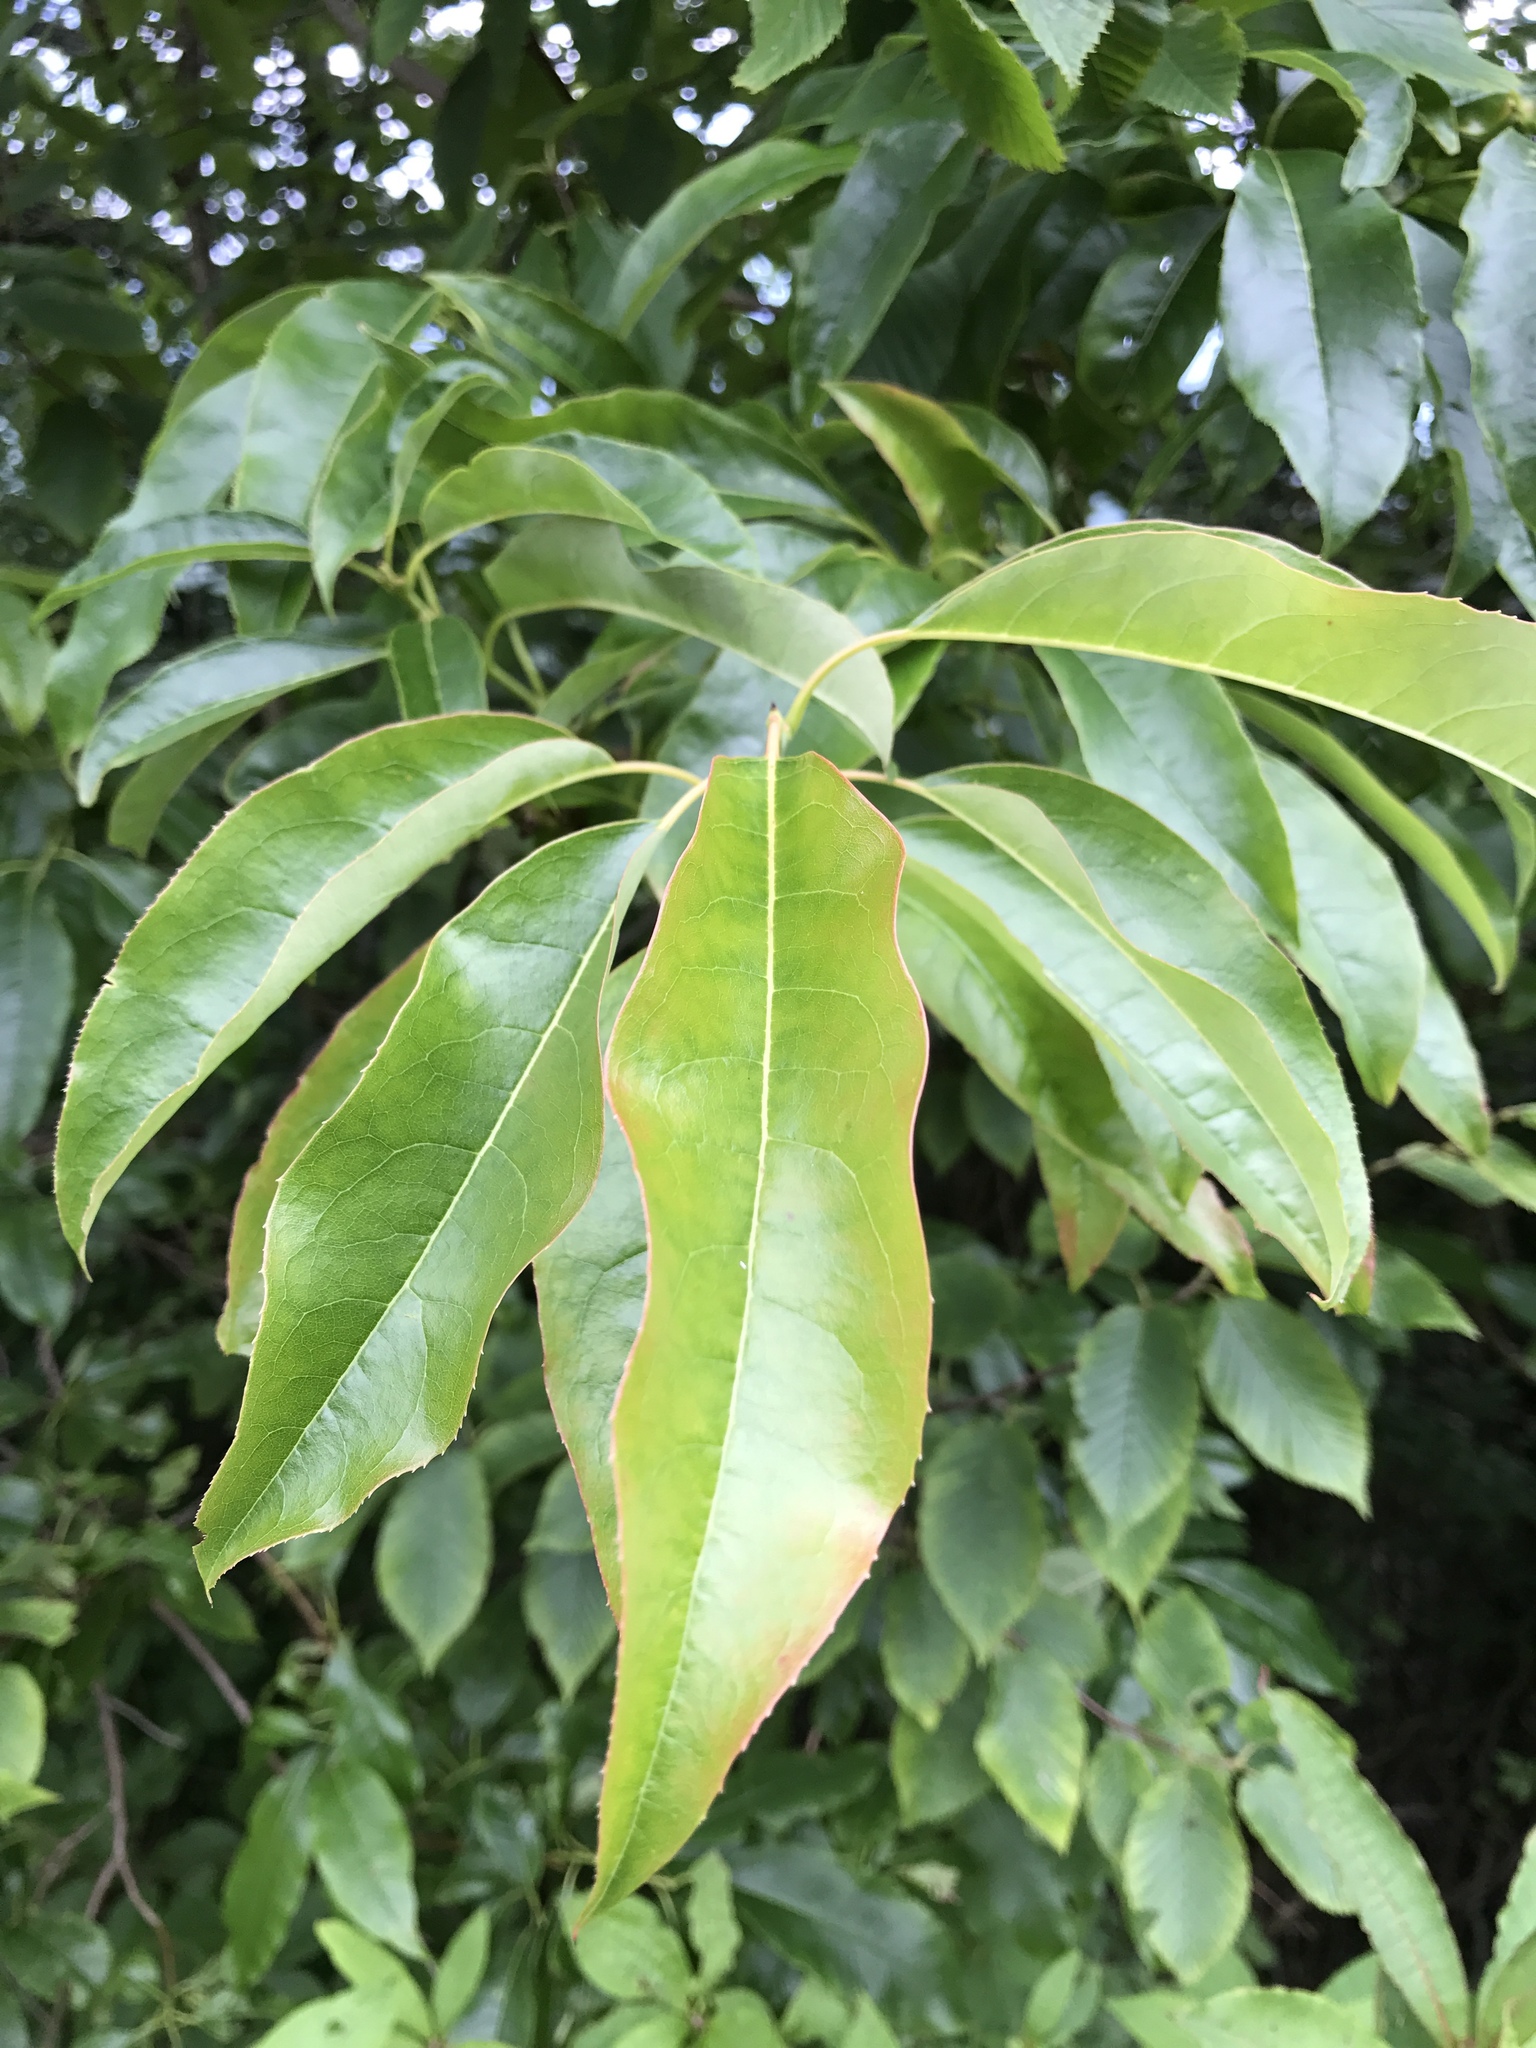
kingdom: Plantae
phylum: Tracheophyta
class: Magnoliopsida
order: Ericales
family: Ericaceae
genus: Oxydendrum
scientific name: Oxydendrum arboreum
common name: Sourwood
